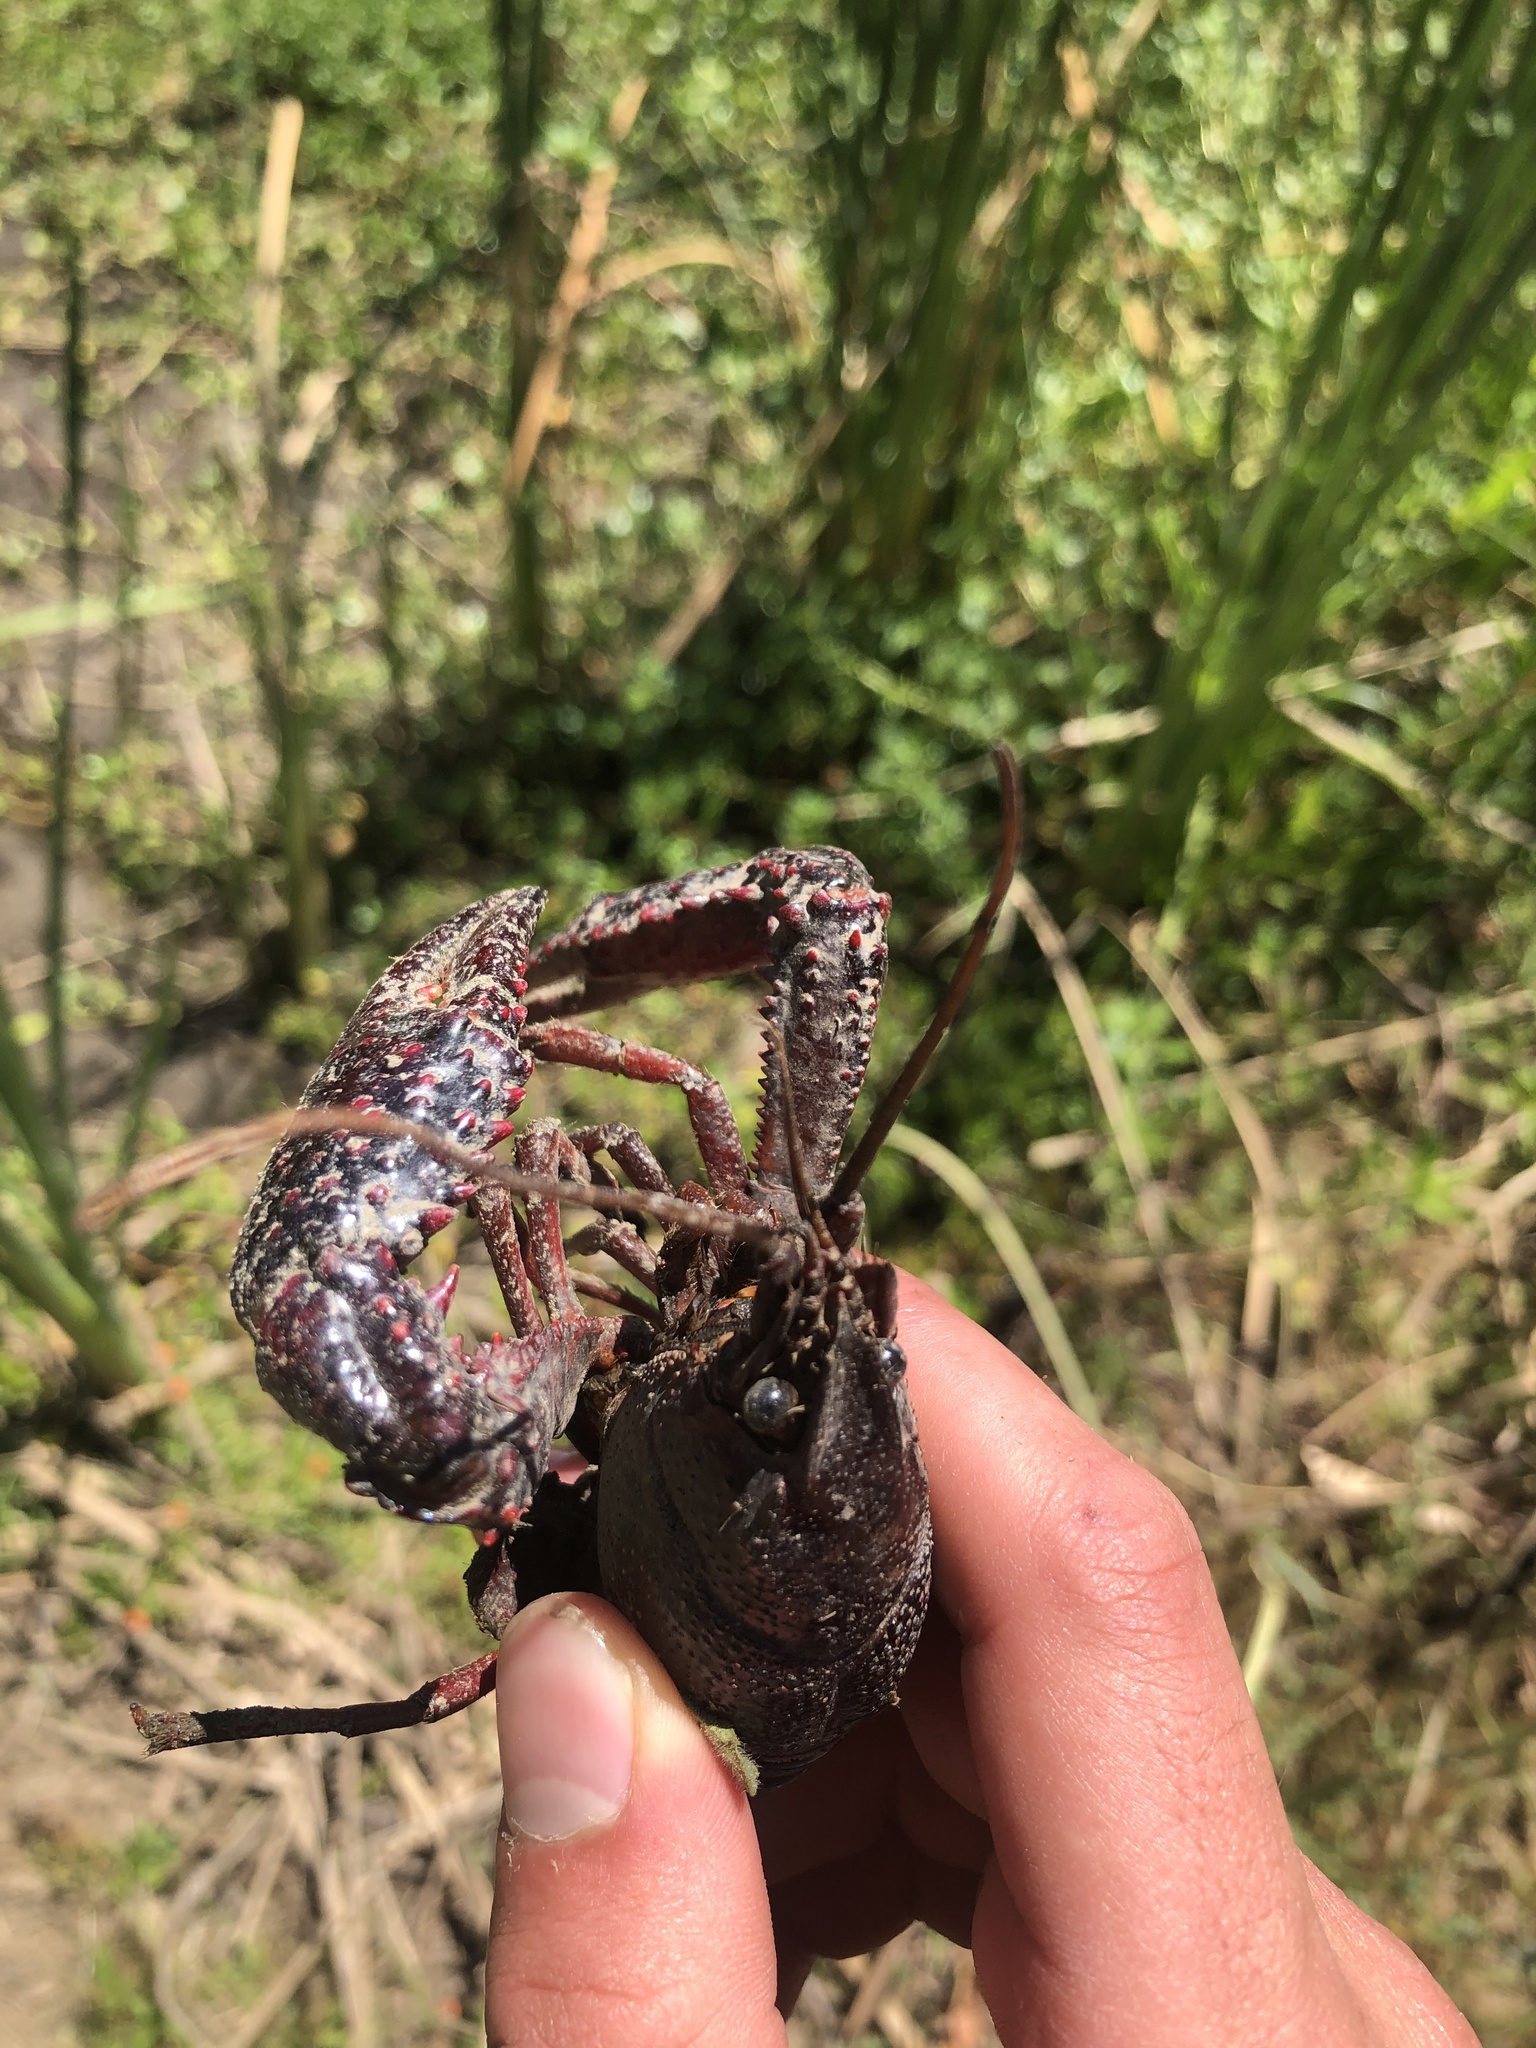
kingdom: Animalia
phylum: Arthropoda
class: Malacostraca
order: Decapoda
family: Cambaridae
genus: Procambarus
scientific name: Procambarus clarkii
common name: Red swamp crayfish
